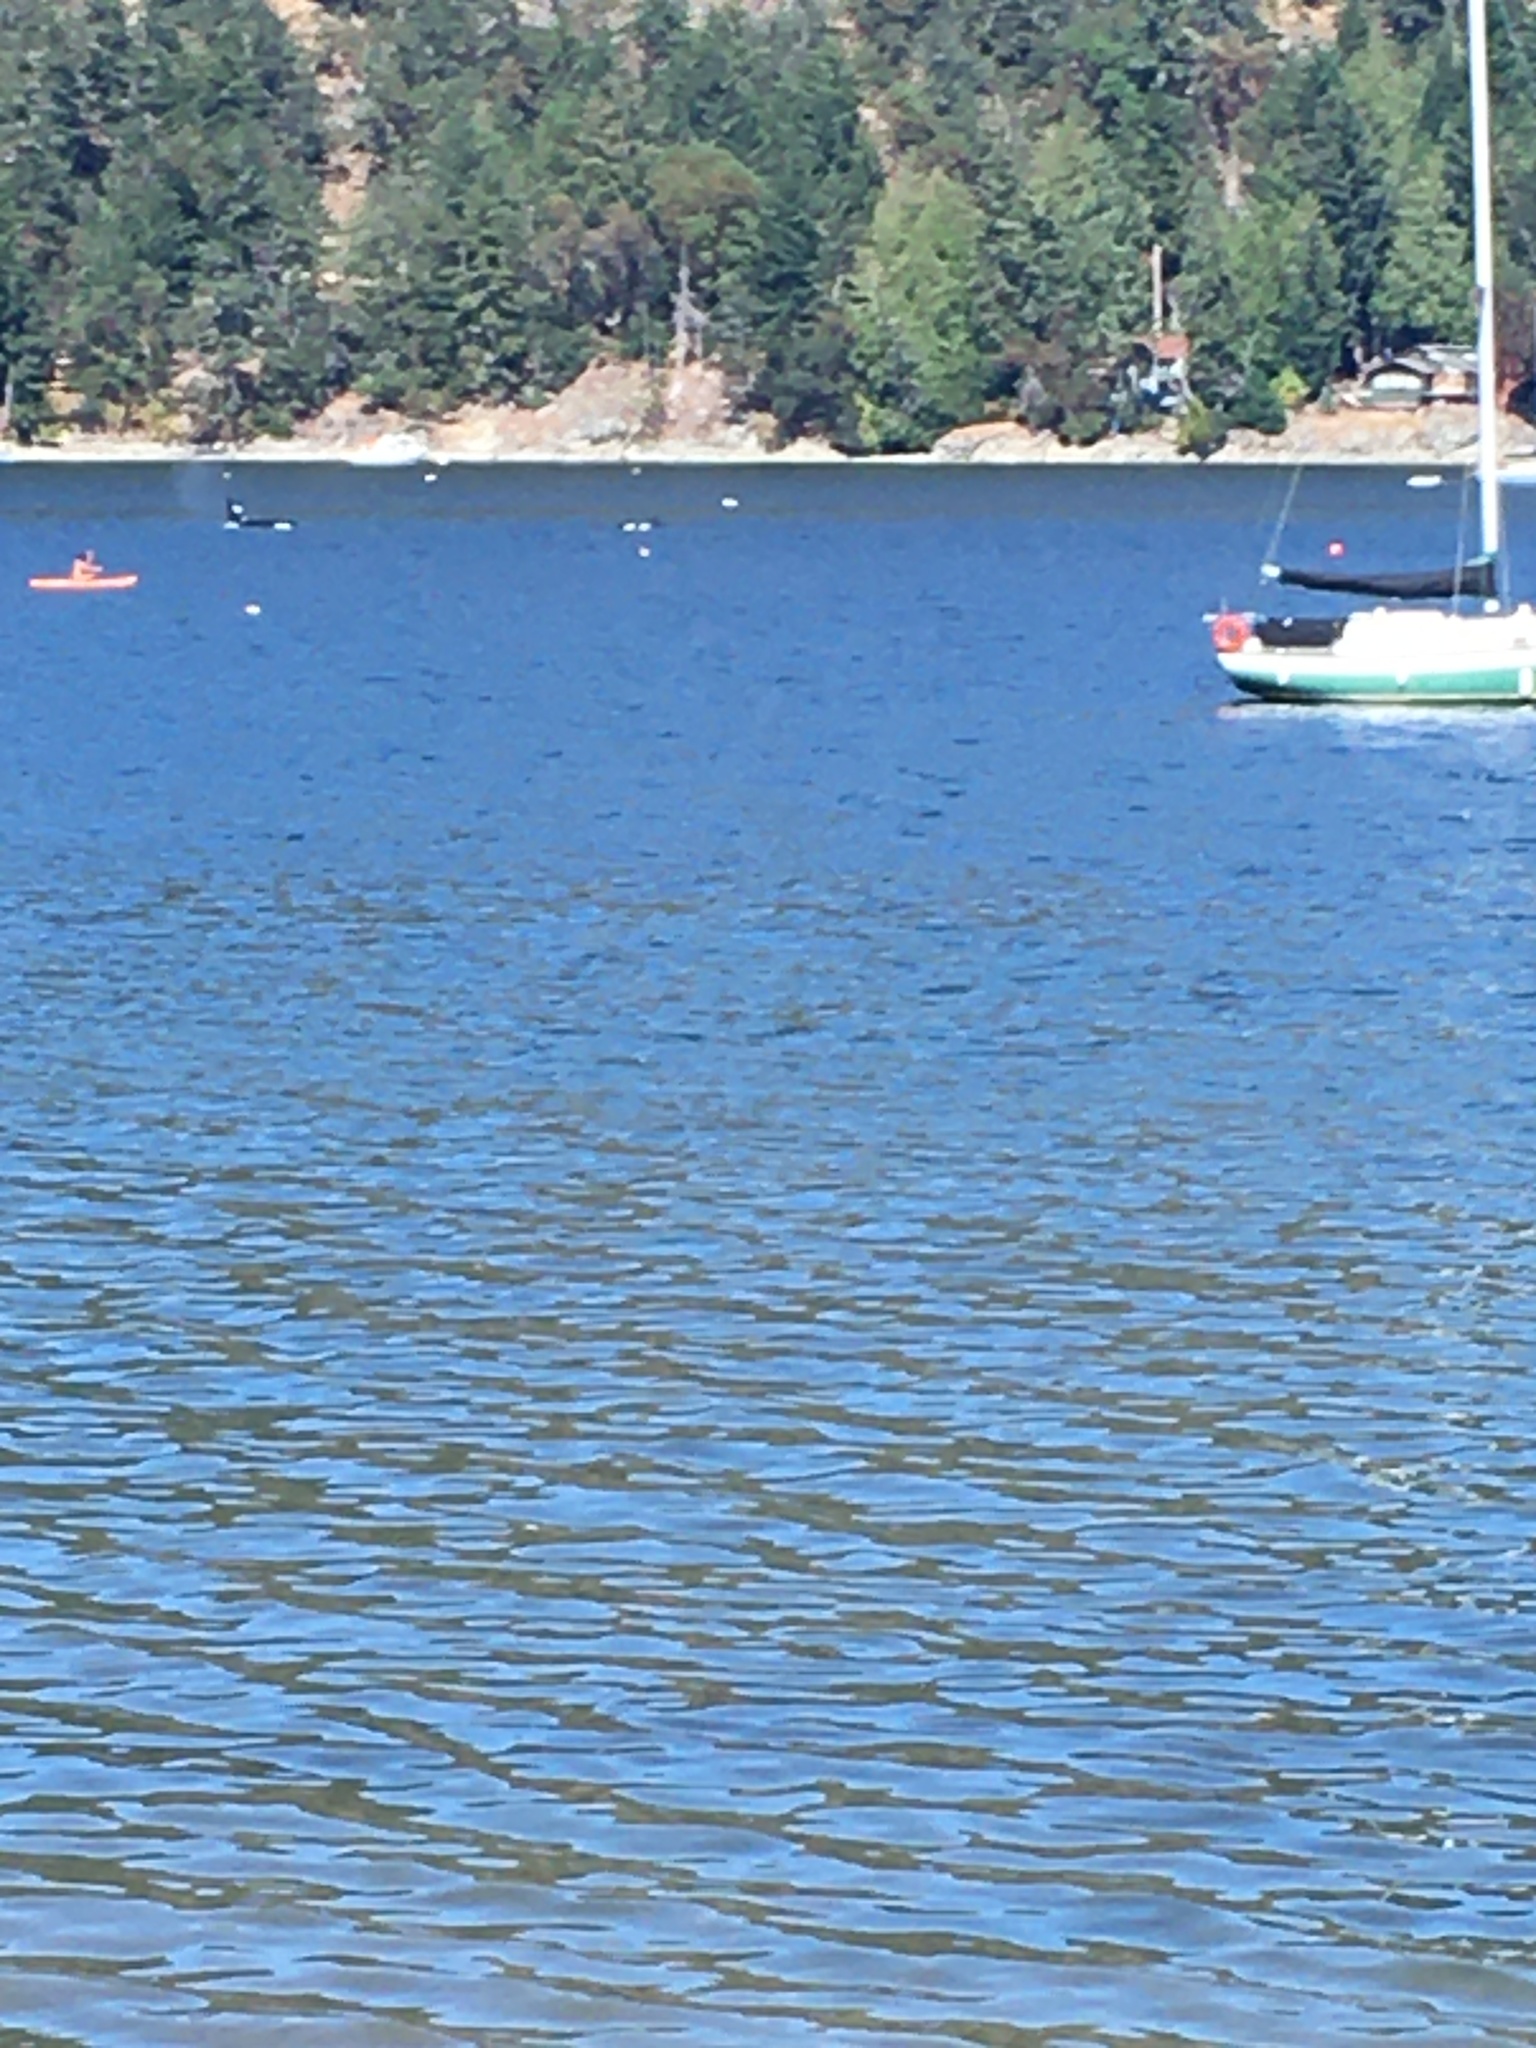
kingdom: Animalia
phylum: Chordata
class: Mammalia
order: Cetacea
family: Delphinidae
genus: Orcinus
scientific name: Orcinus orca
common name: Killer whale
